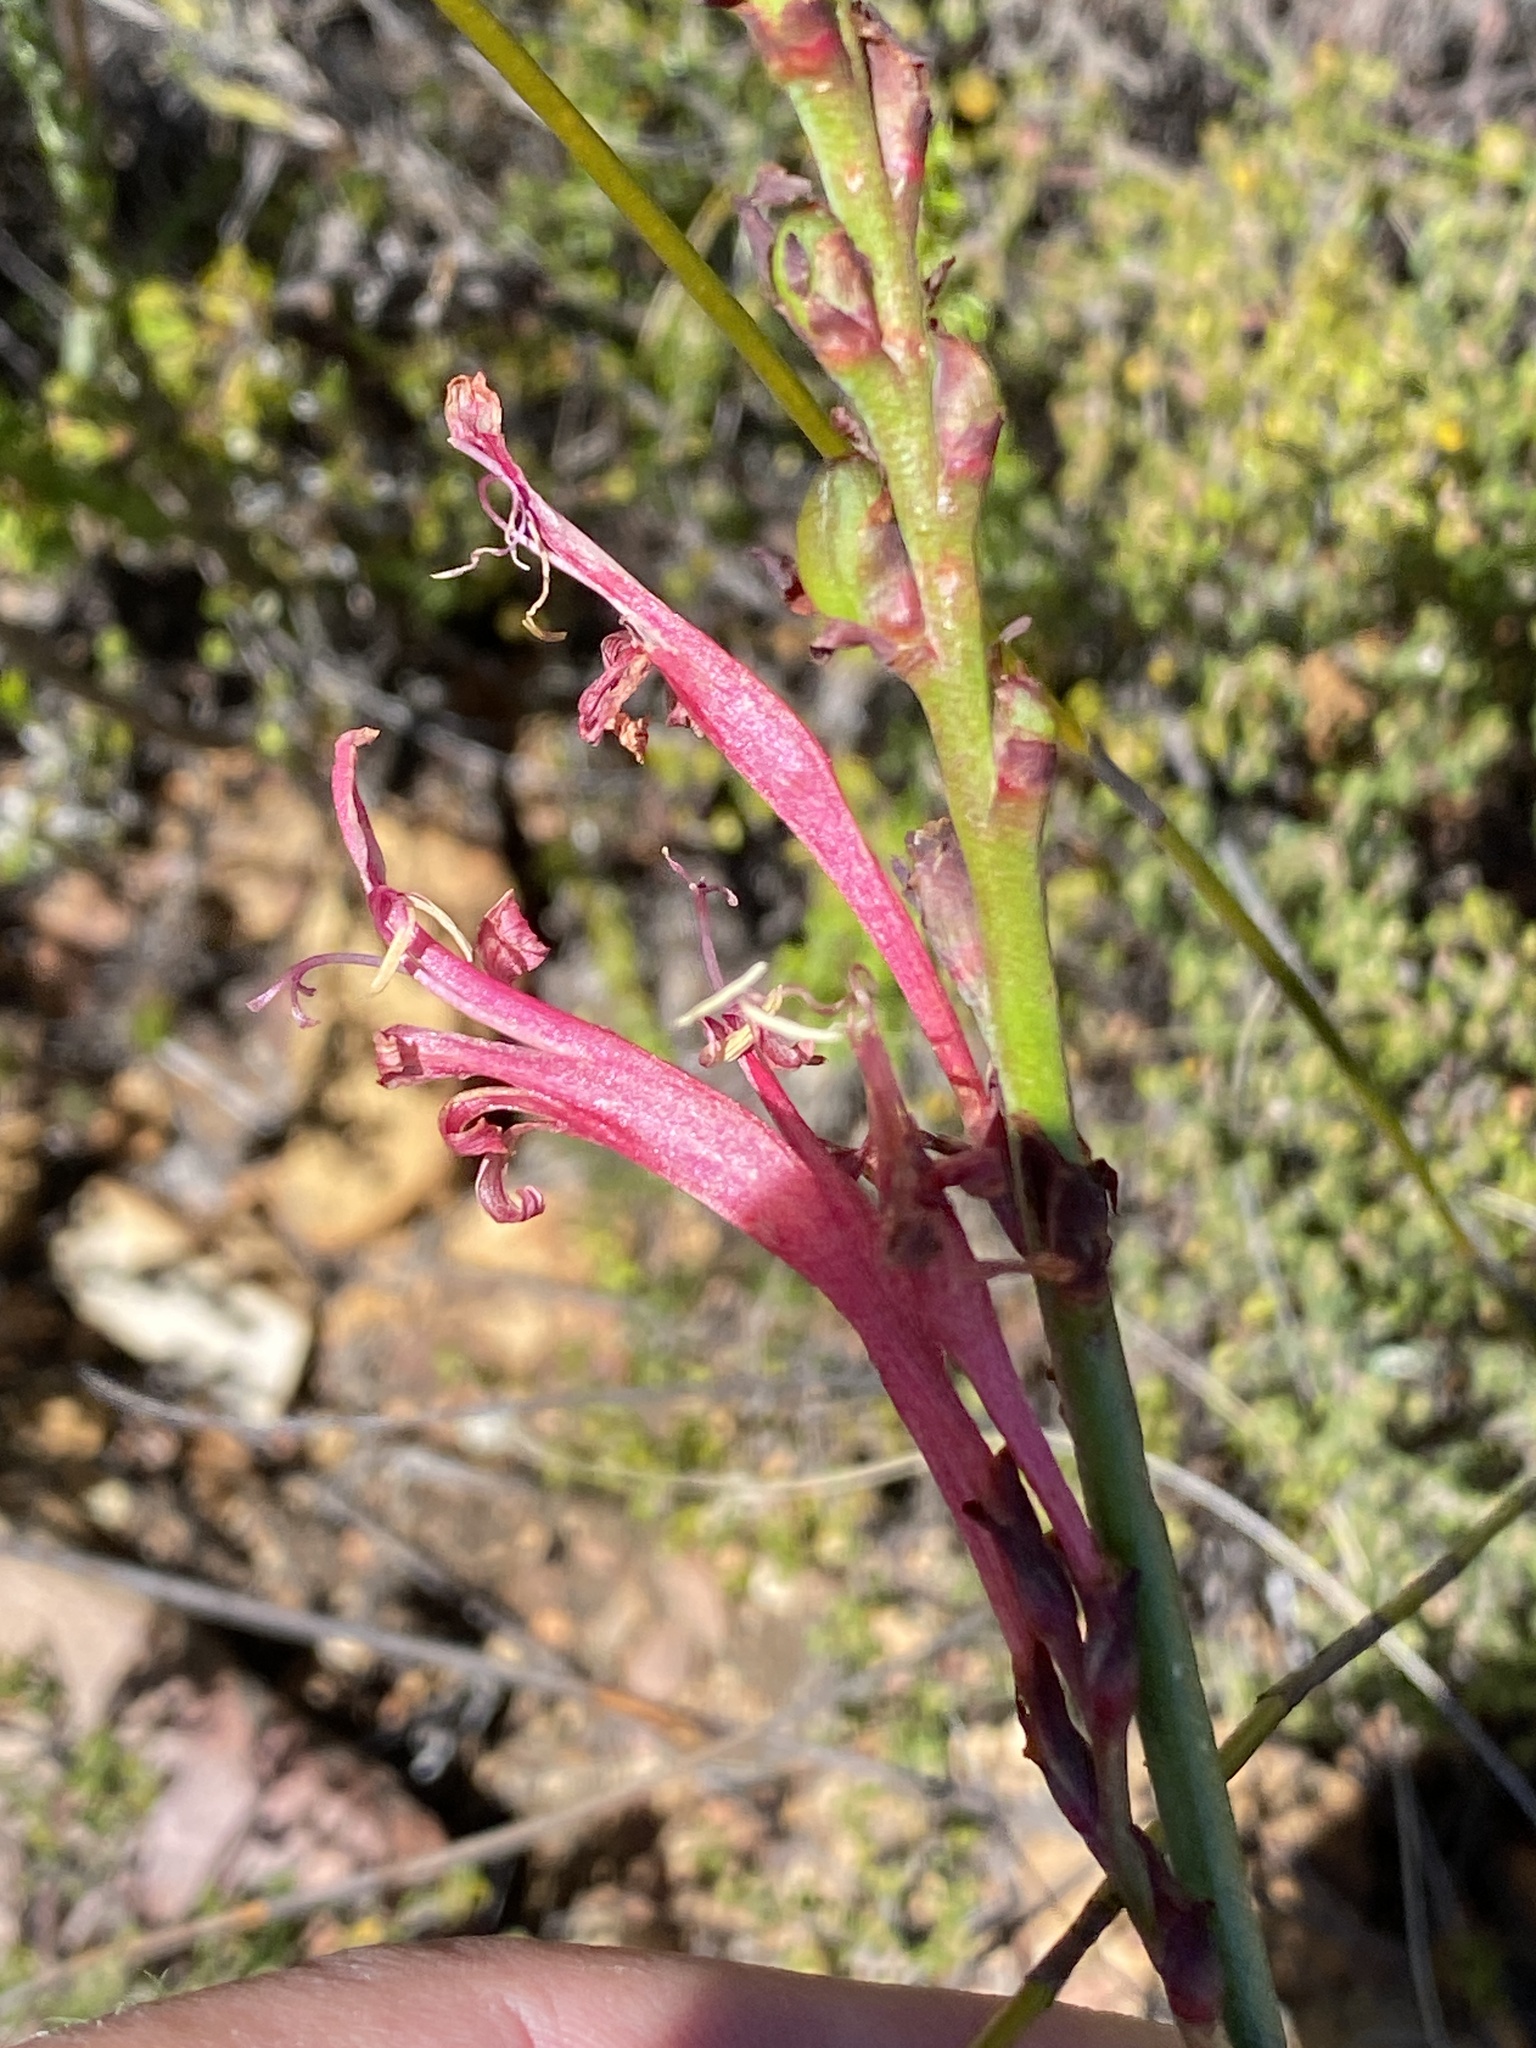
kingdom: Plantae
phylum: Tracheophyta
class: Liliopsida
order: Asparagales
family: Iridaceae
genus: Tritoniopsis
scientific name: Tritoniopsis antholyza
